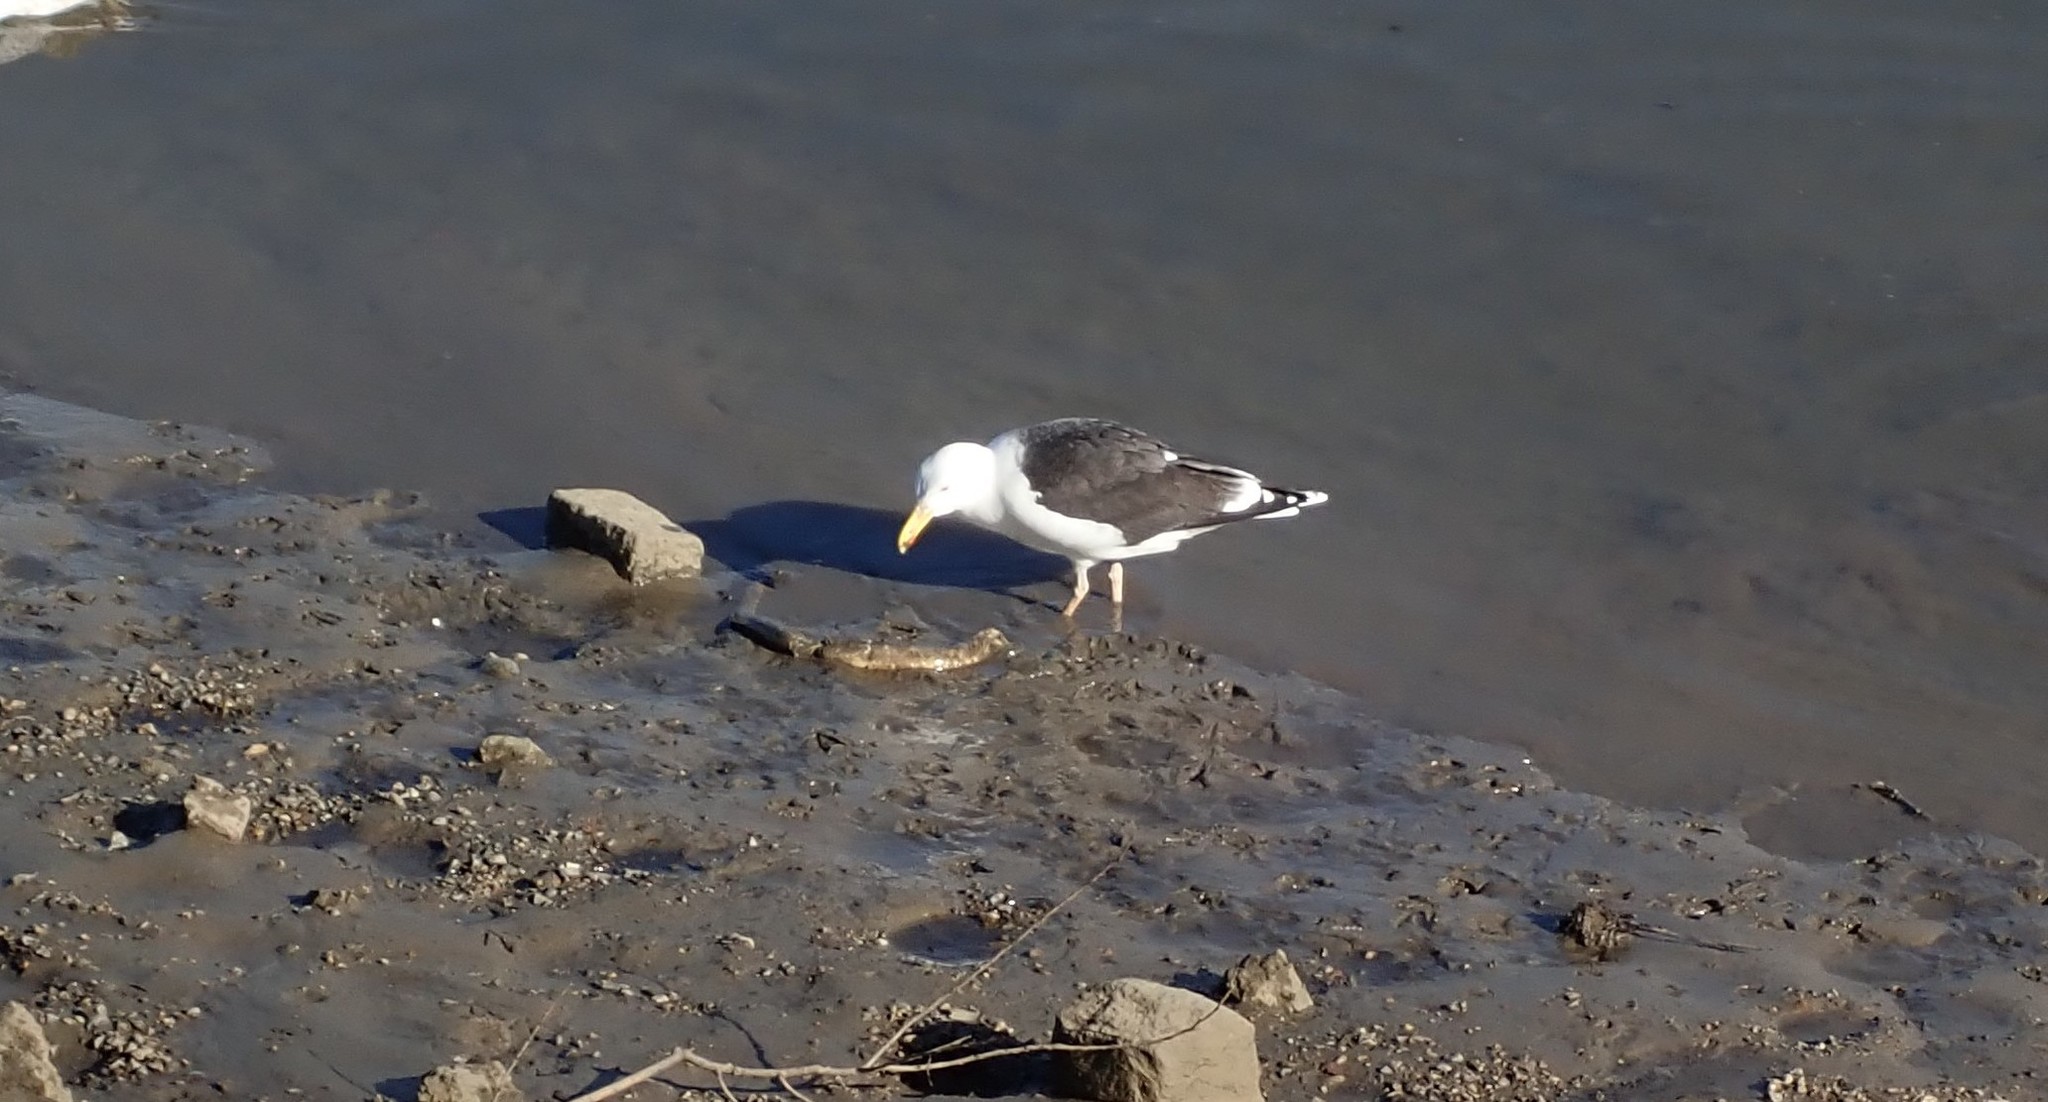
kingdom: Animalia
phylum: Chordata
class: Aves
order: Charadriiformes
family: Laridae
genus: Larus
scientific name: Larus marinus
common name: Great black-backed gull
